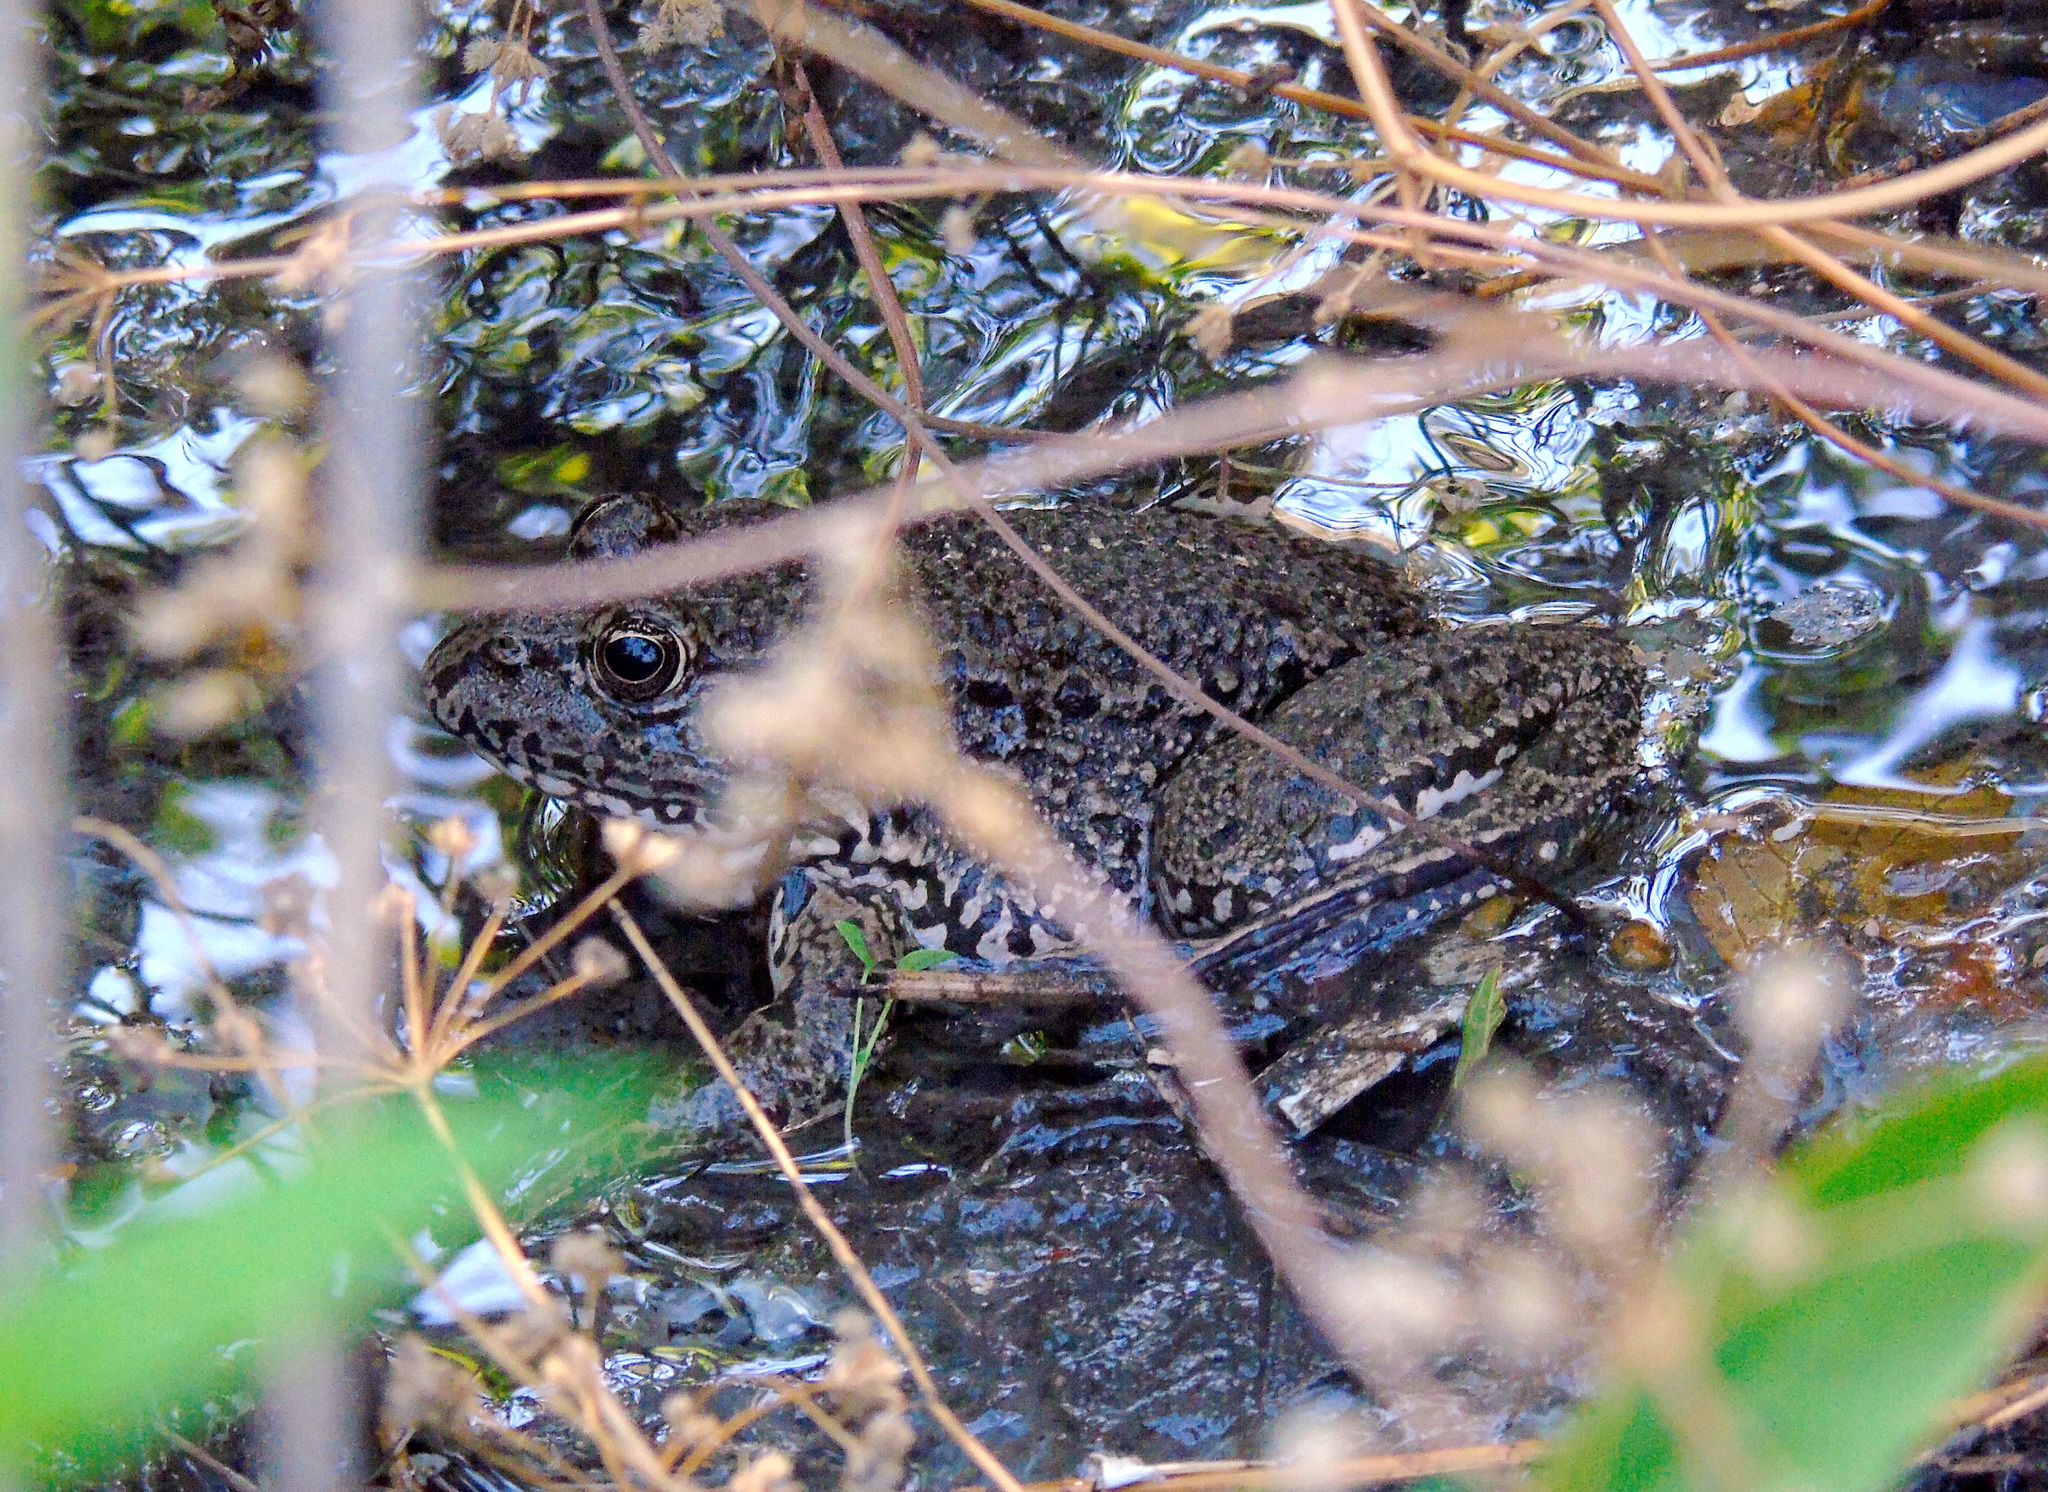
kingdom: Animalia
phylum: Chordata
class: Amphibia
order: Anura
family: Ranidae
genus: Pelophylax
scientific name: Pelophylax ridibundus
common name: Marsh frog
